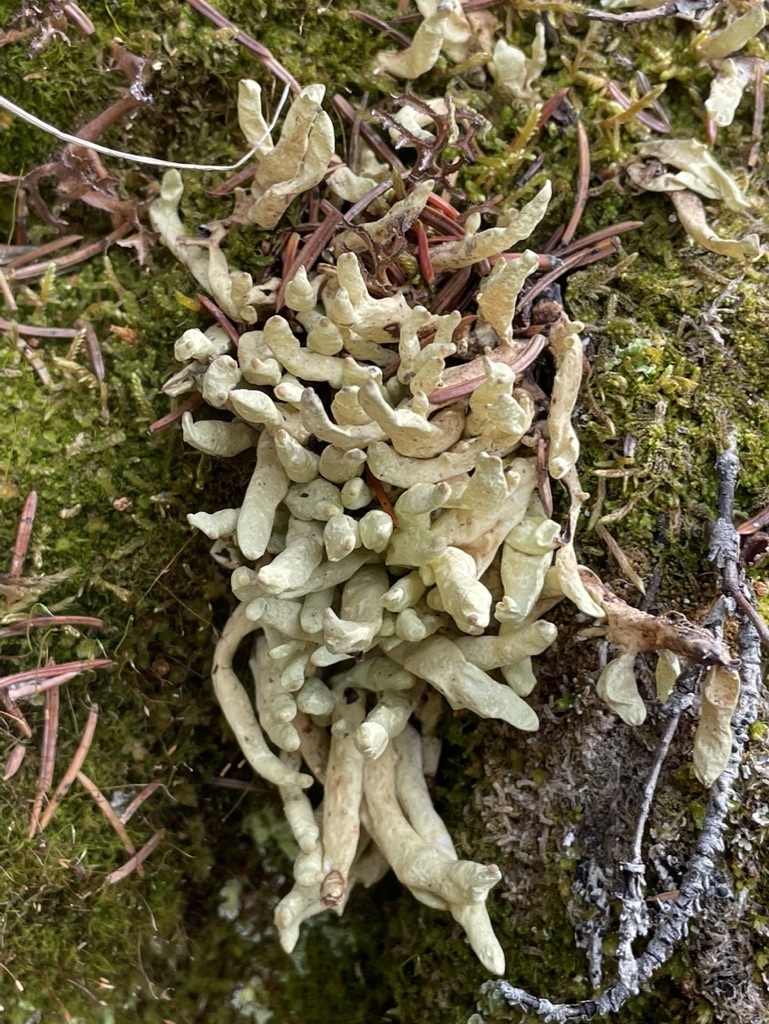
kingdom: Fungi
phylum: Ascomycota
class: Lecanoromycetes
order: Lecanorales
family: Parmeliaceae
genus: Dactylina
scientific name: Dactylina arctica
